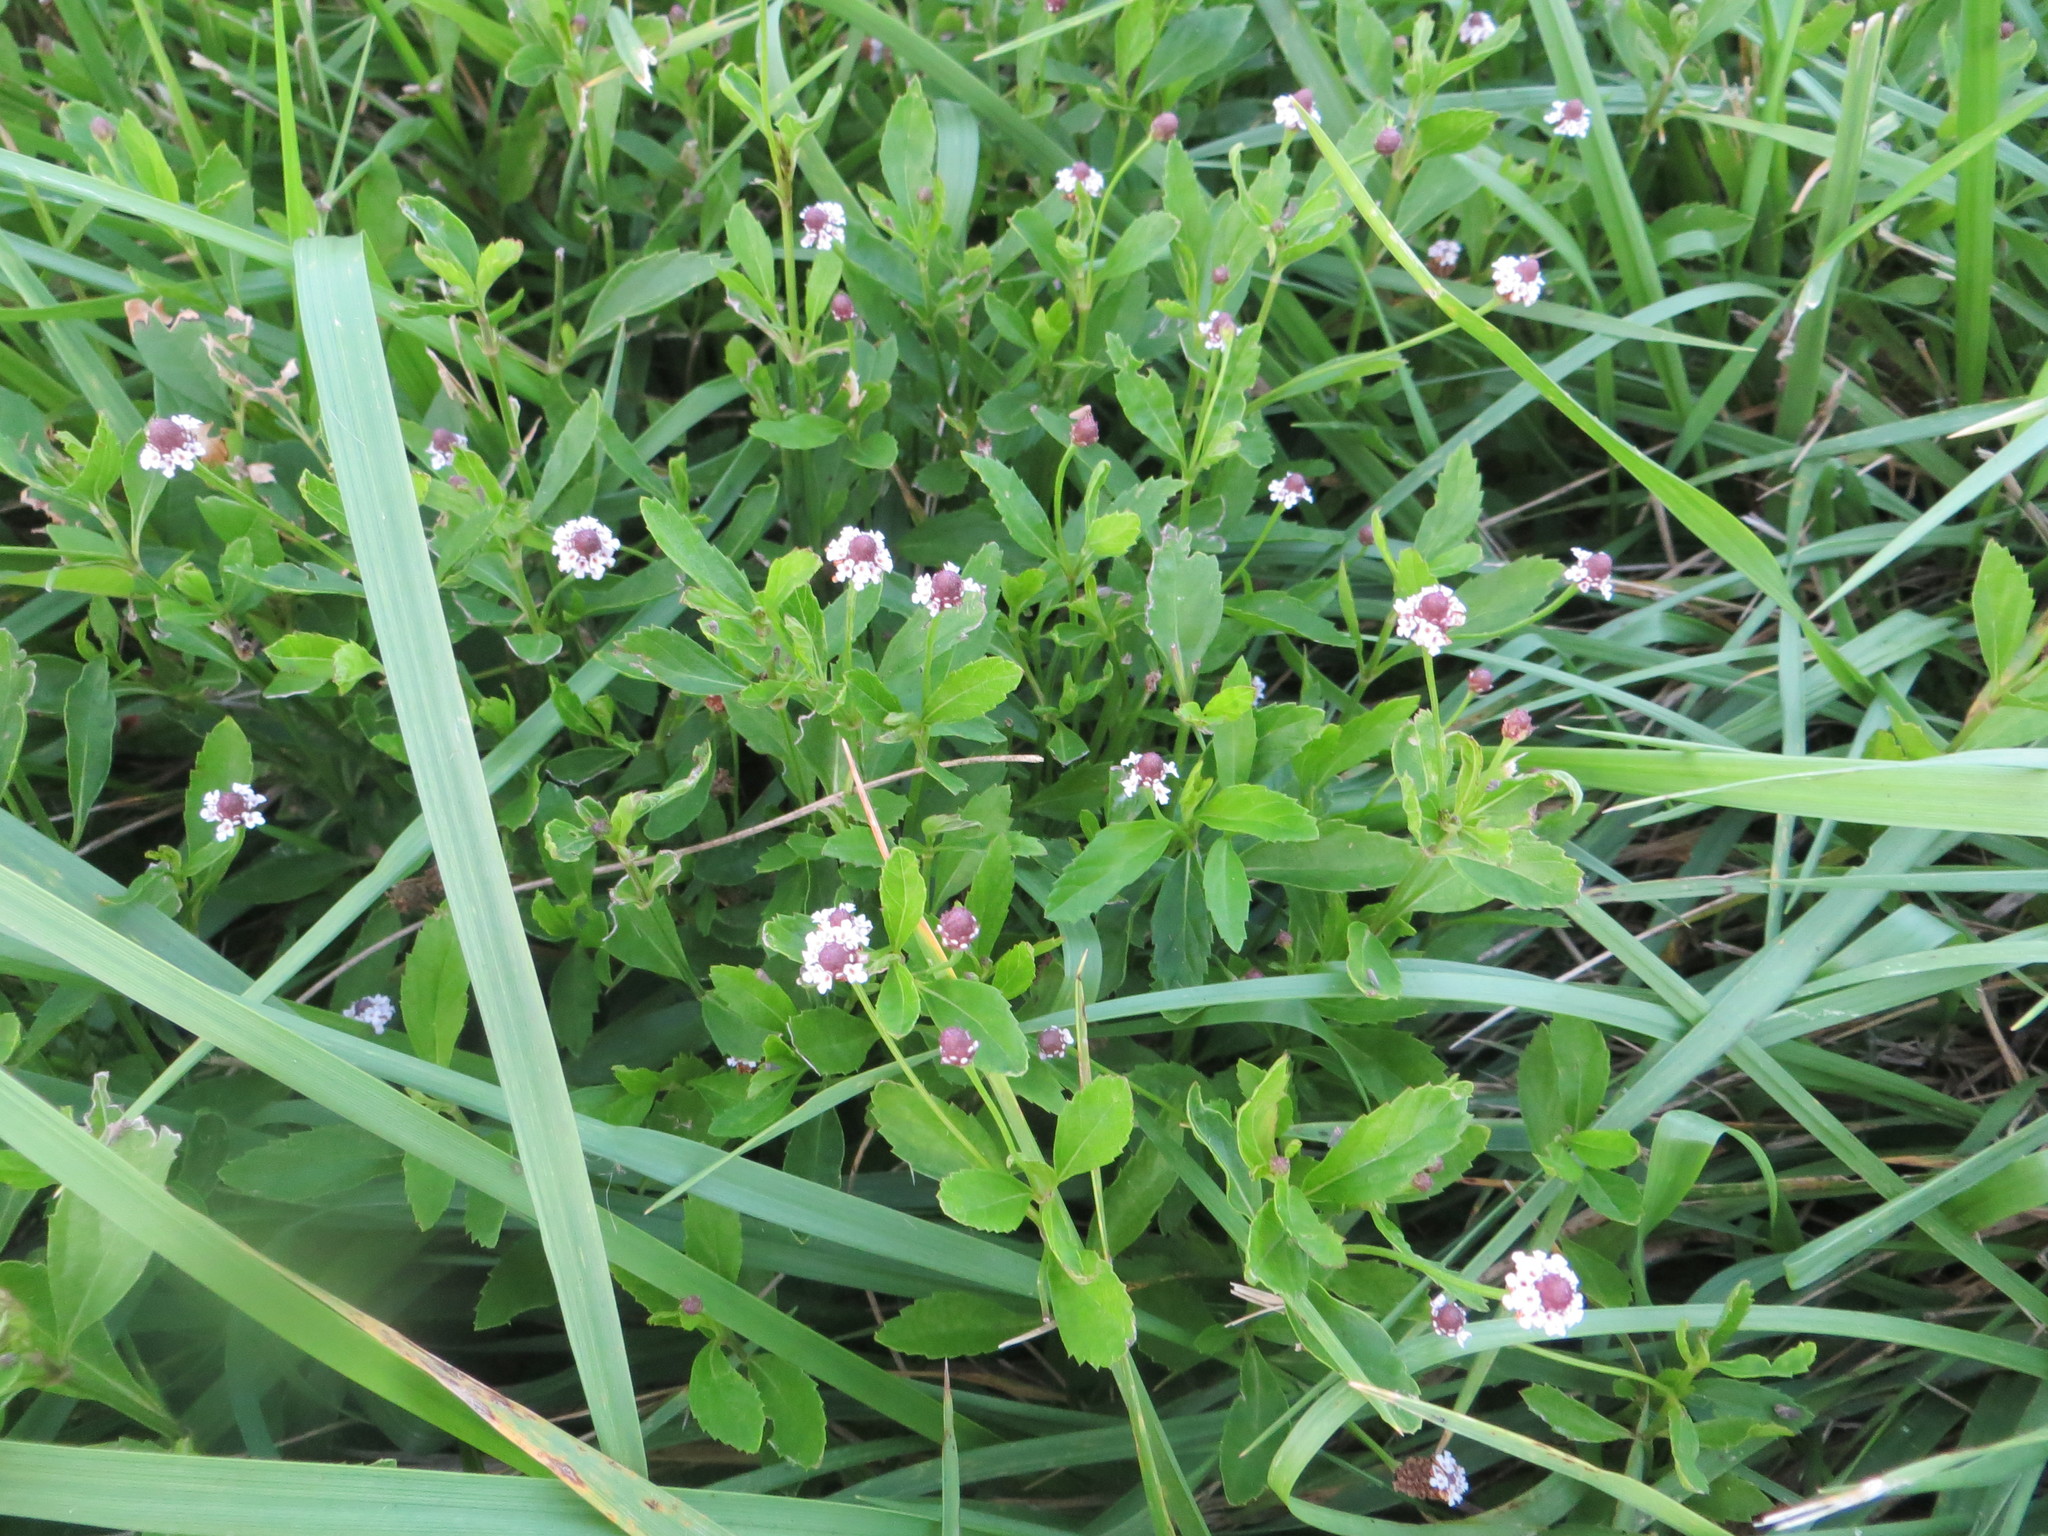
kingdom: Plantae
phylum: Tracheophyta
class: Magnoliopsida
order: Lamiales
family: Verbenaceae
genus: Phyla
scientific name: Phyla lanceolata
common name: Northern fogfruit
